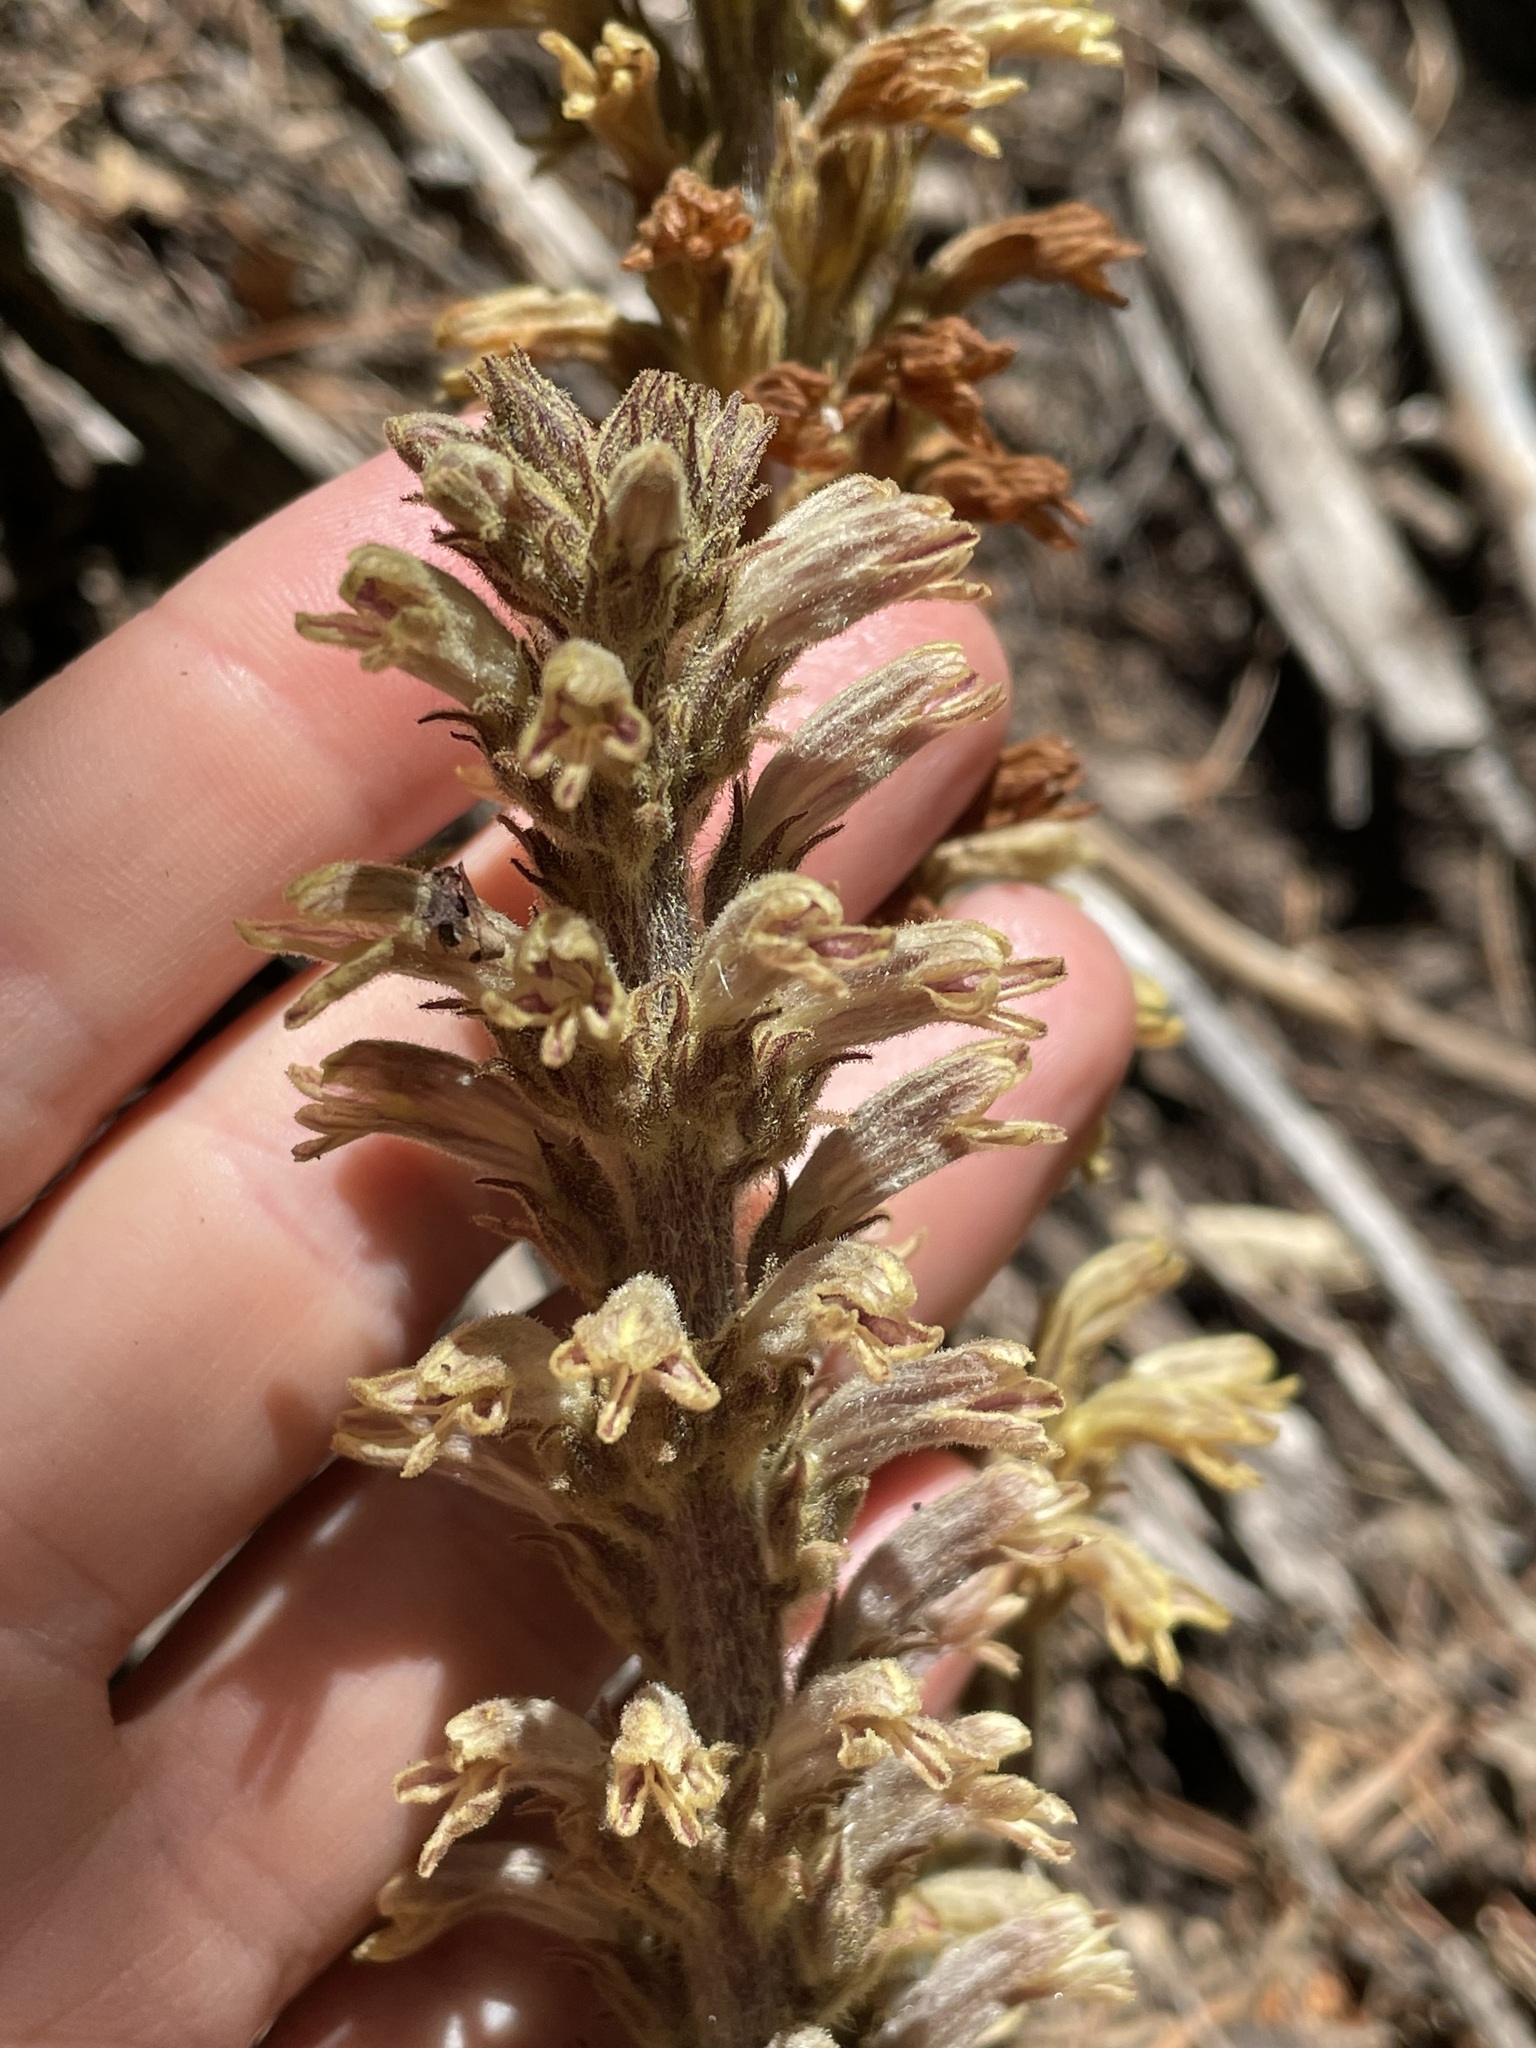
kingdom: Plantae
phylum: Tracheophyta
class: Magnoliopsida
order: Lamiales
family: Orobanchaceae
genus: Aphyllon
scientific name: Aphyllon pinorum
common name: Conifer broomrape
